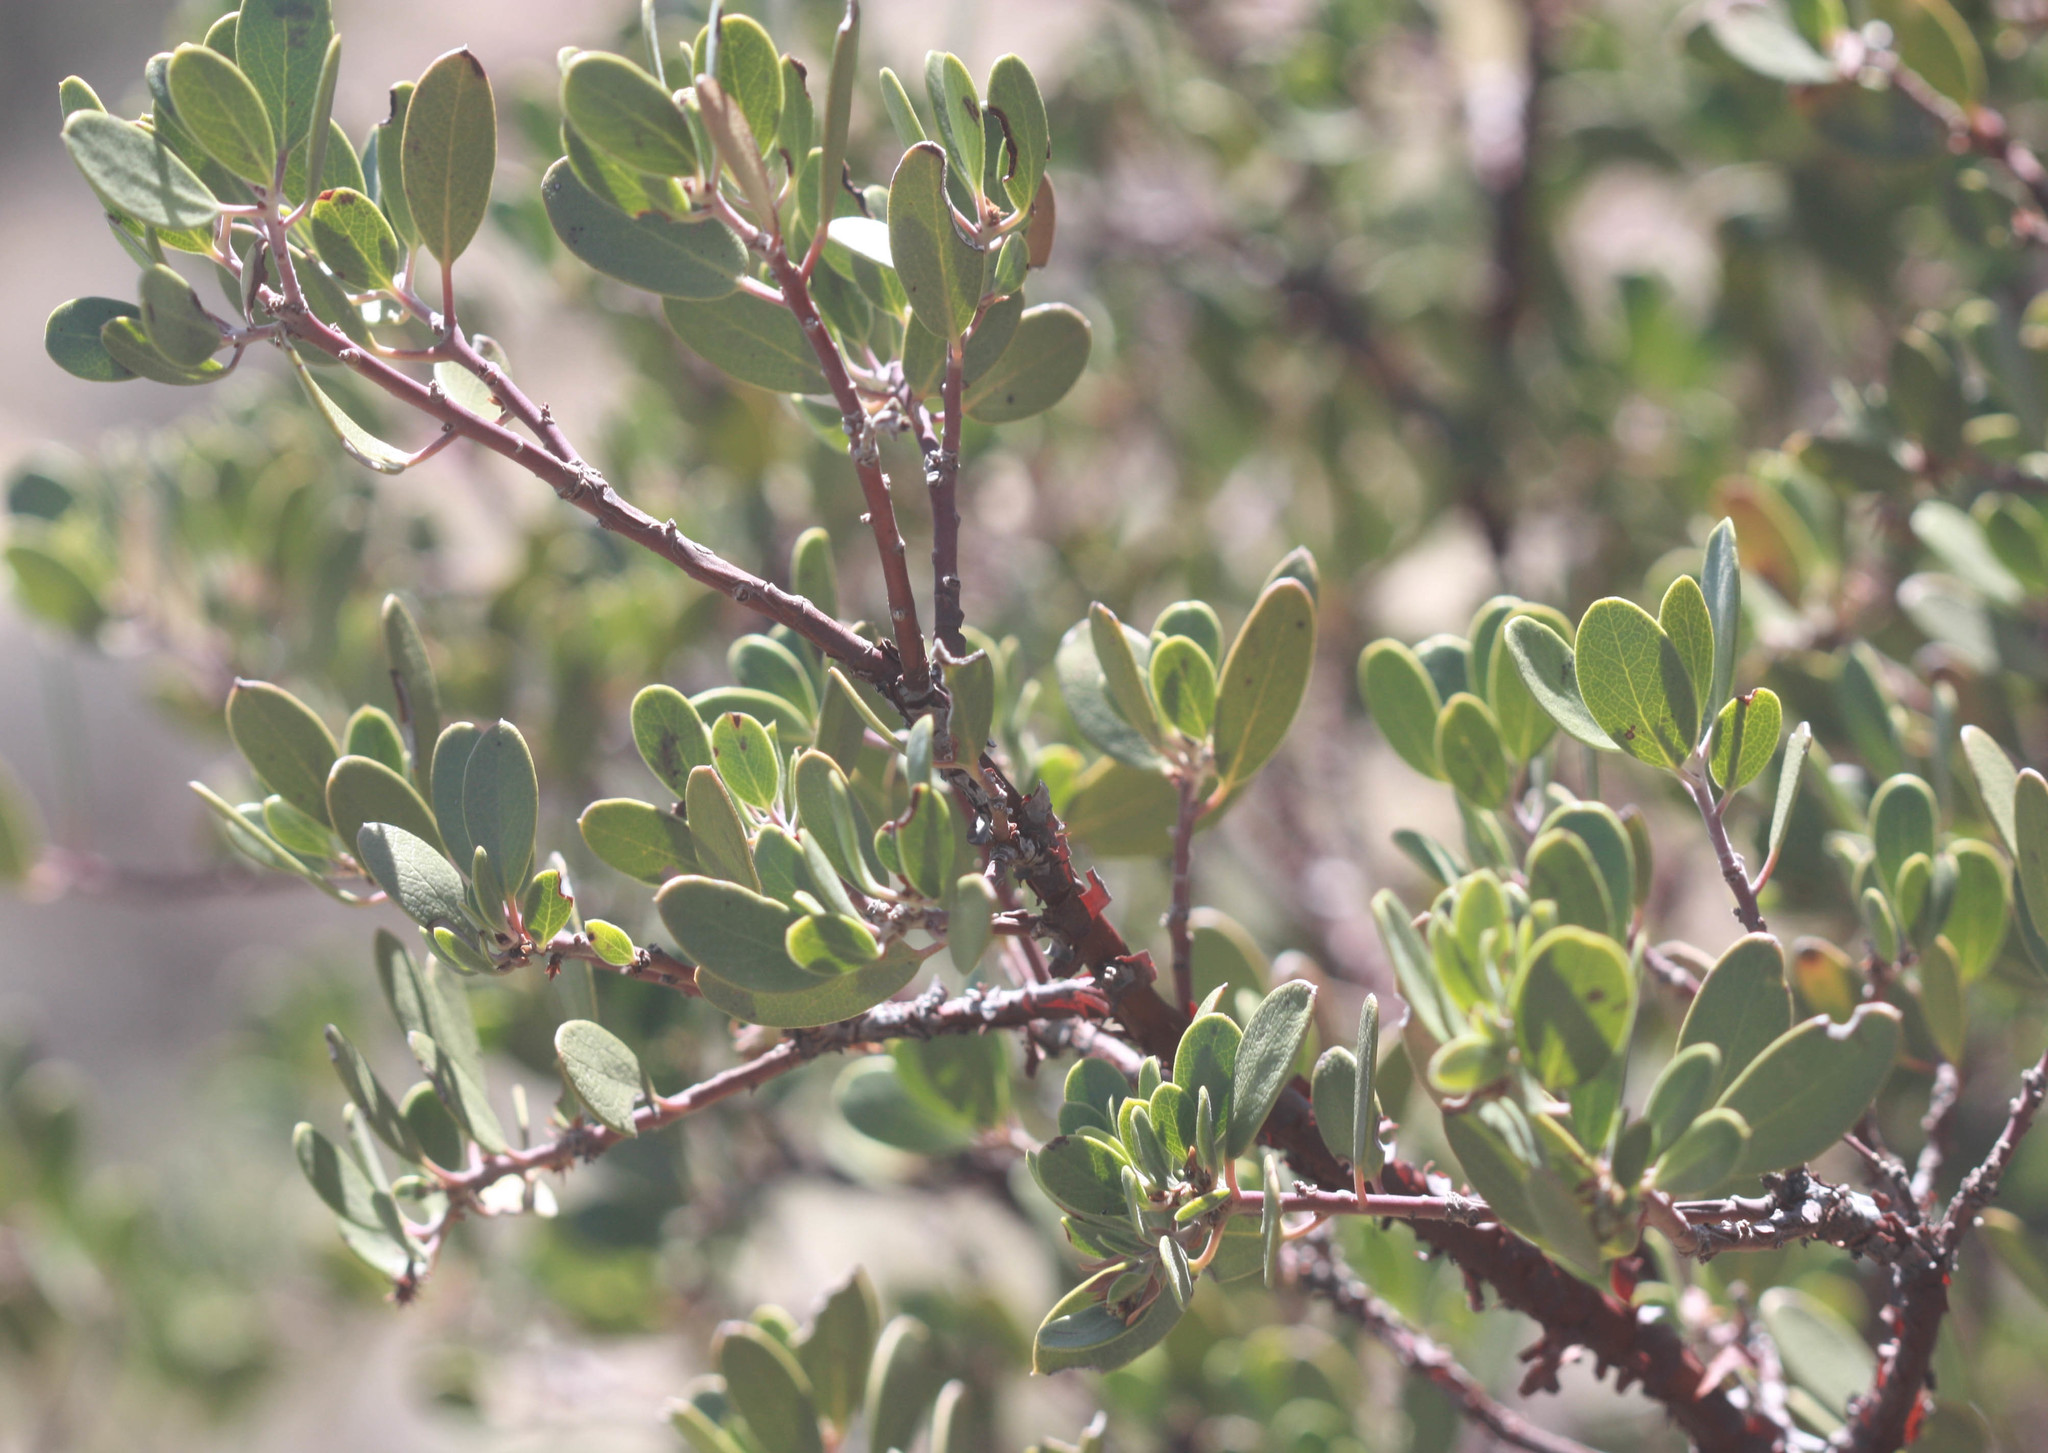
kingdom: Plantae
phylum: Tracheophyta
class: Magnoliopsida
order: Ericales
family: Ericaceae
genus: Arctostaphylos
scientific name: Arctostaphylos pungens
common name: Mexican manzanita
